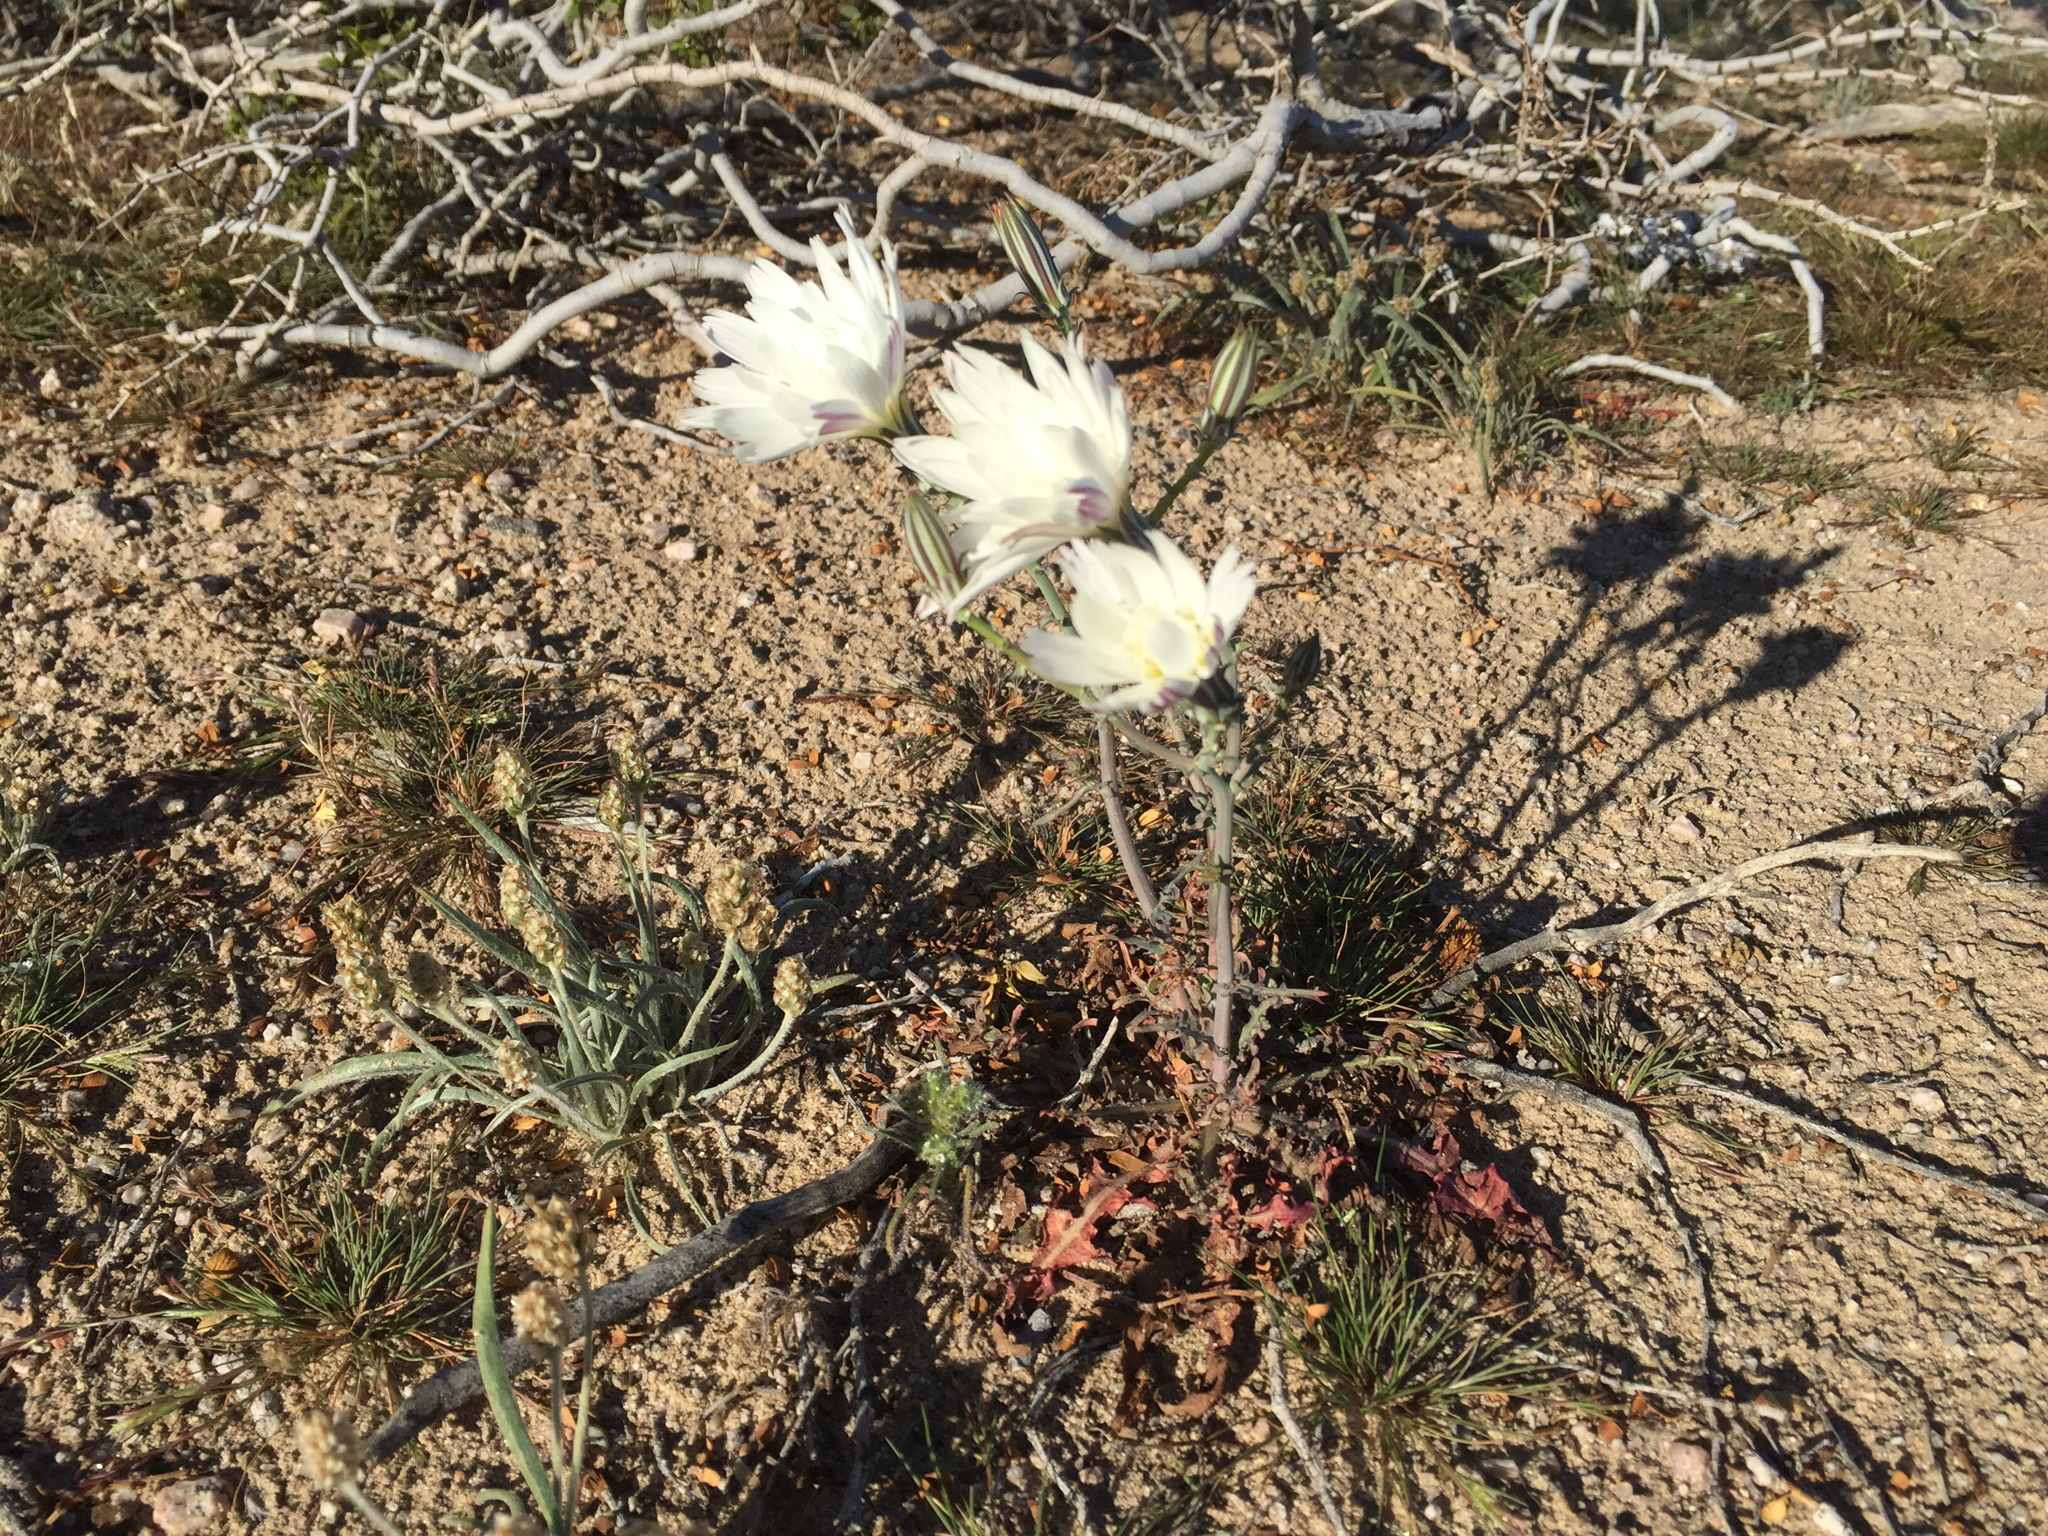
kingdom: Plantae
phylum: Tracheophyta
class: Magnoliopsida
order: Asterales
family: Asteraceae
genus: Rafinesquia
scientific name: Rafinesquia neomexicana
